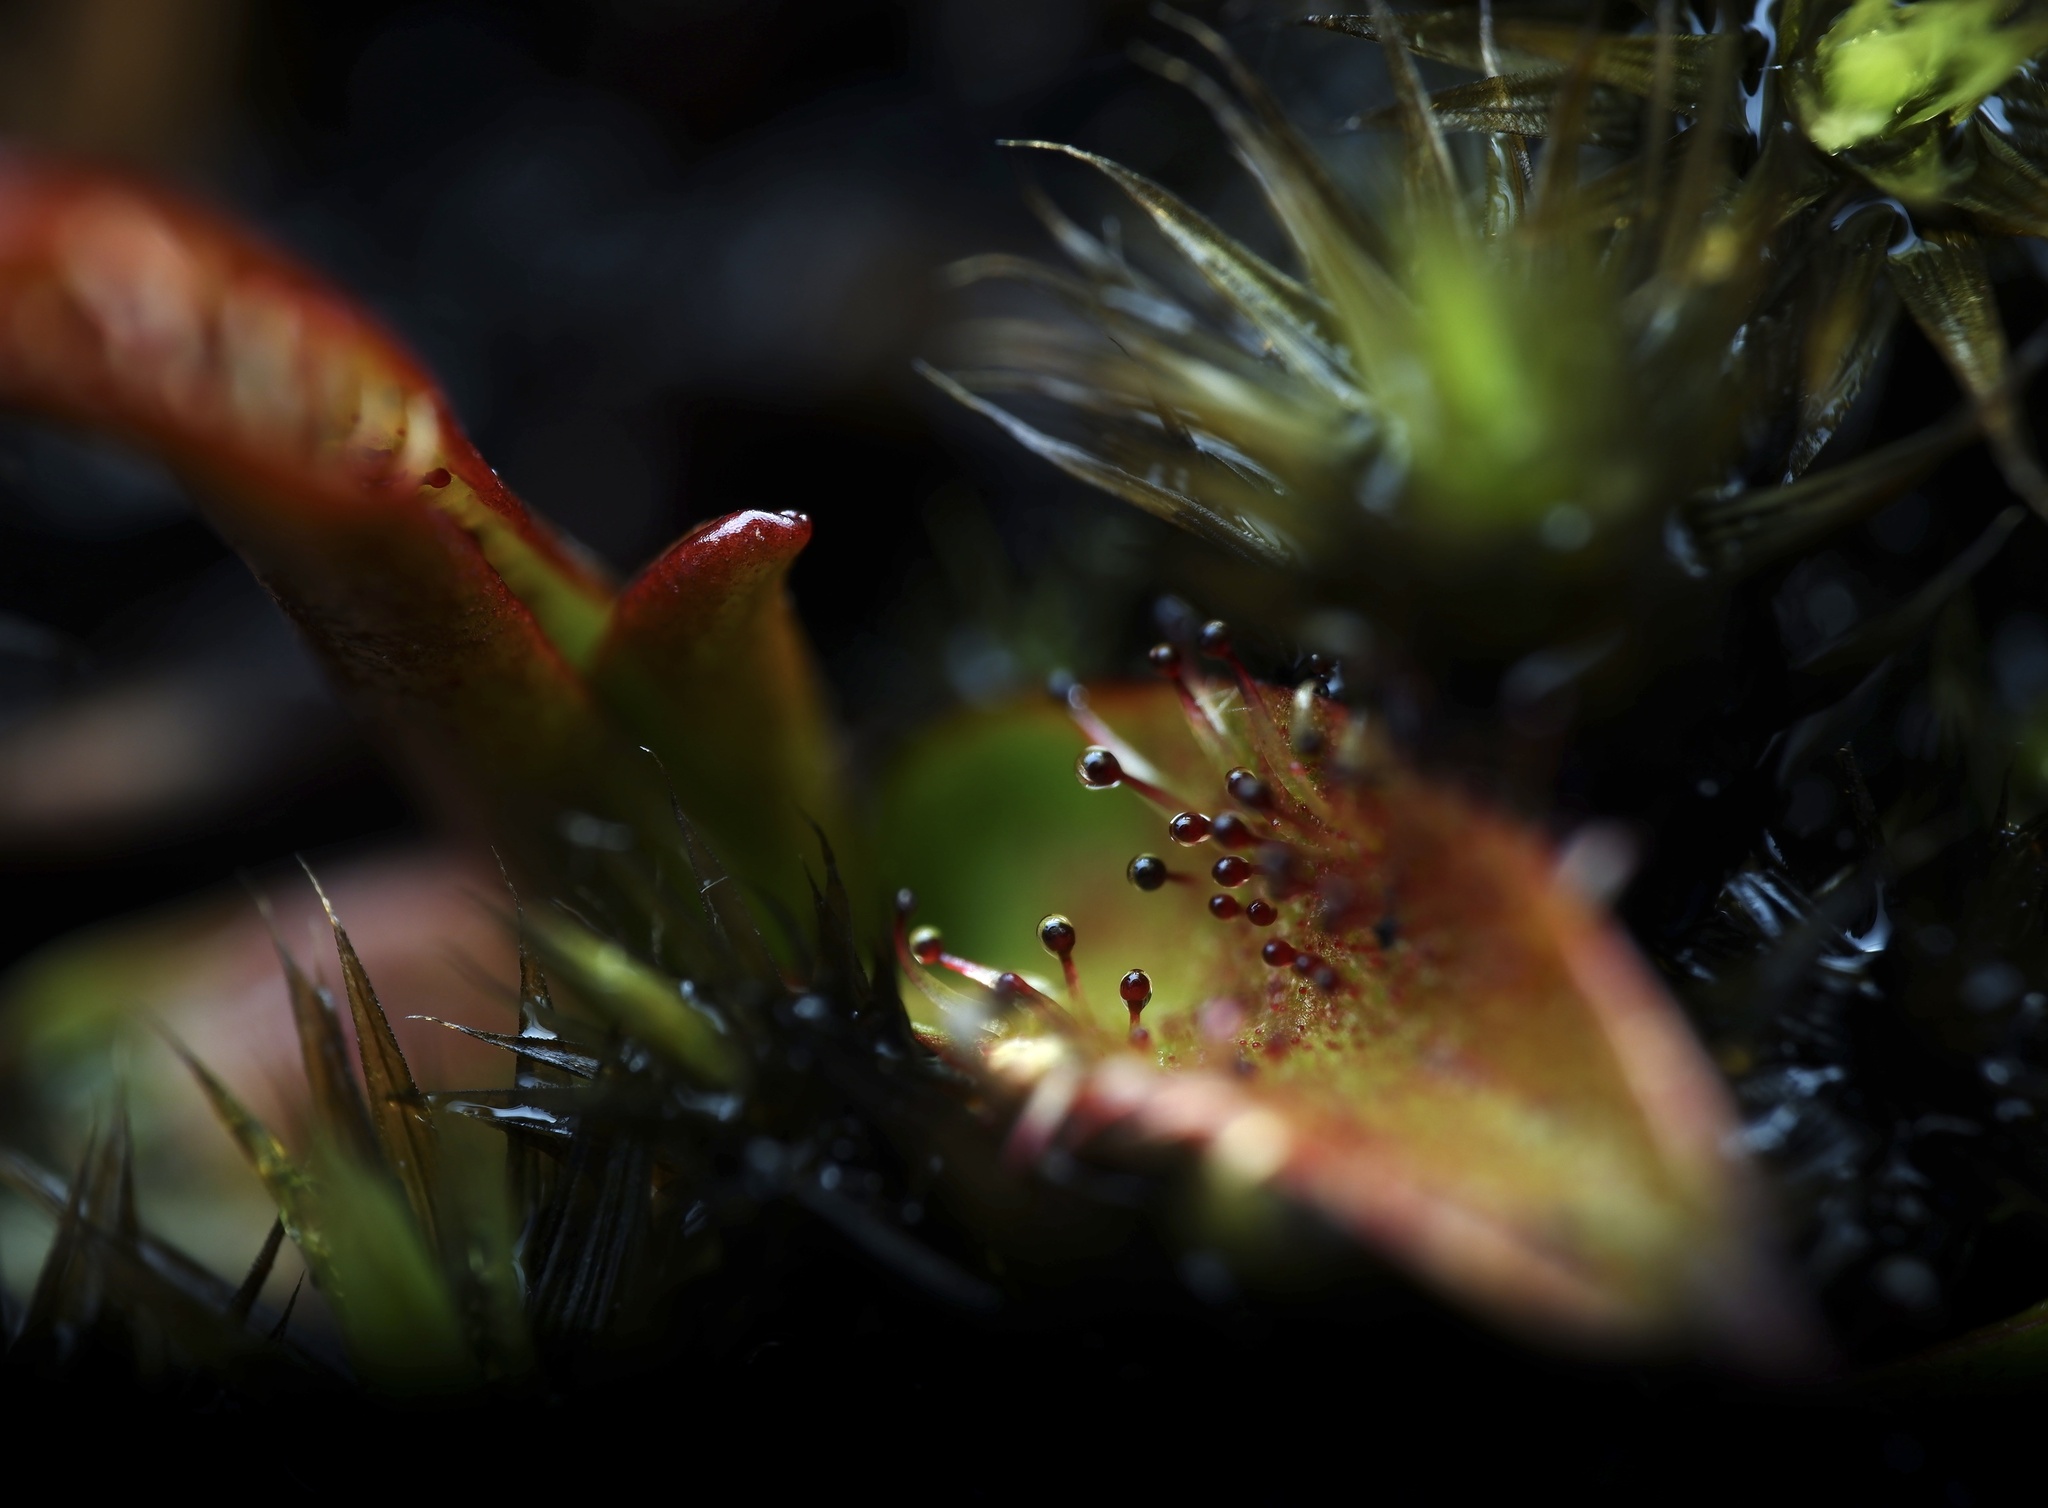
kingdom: Plantae
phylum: Tracheophyta
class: Magnoliopsida
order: Caryophyllales
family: Droseraceae
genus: Drosera
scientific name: Drosera arcturi
